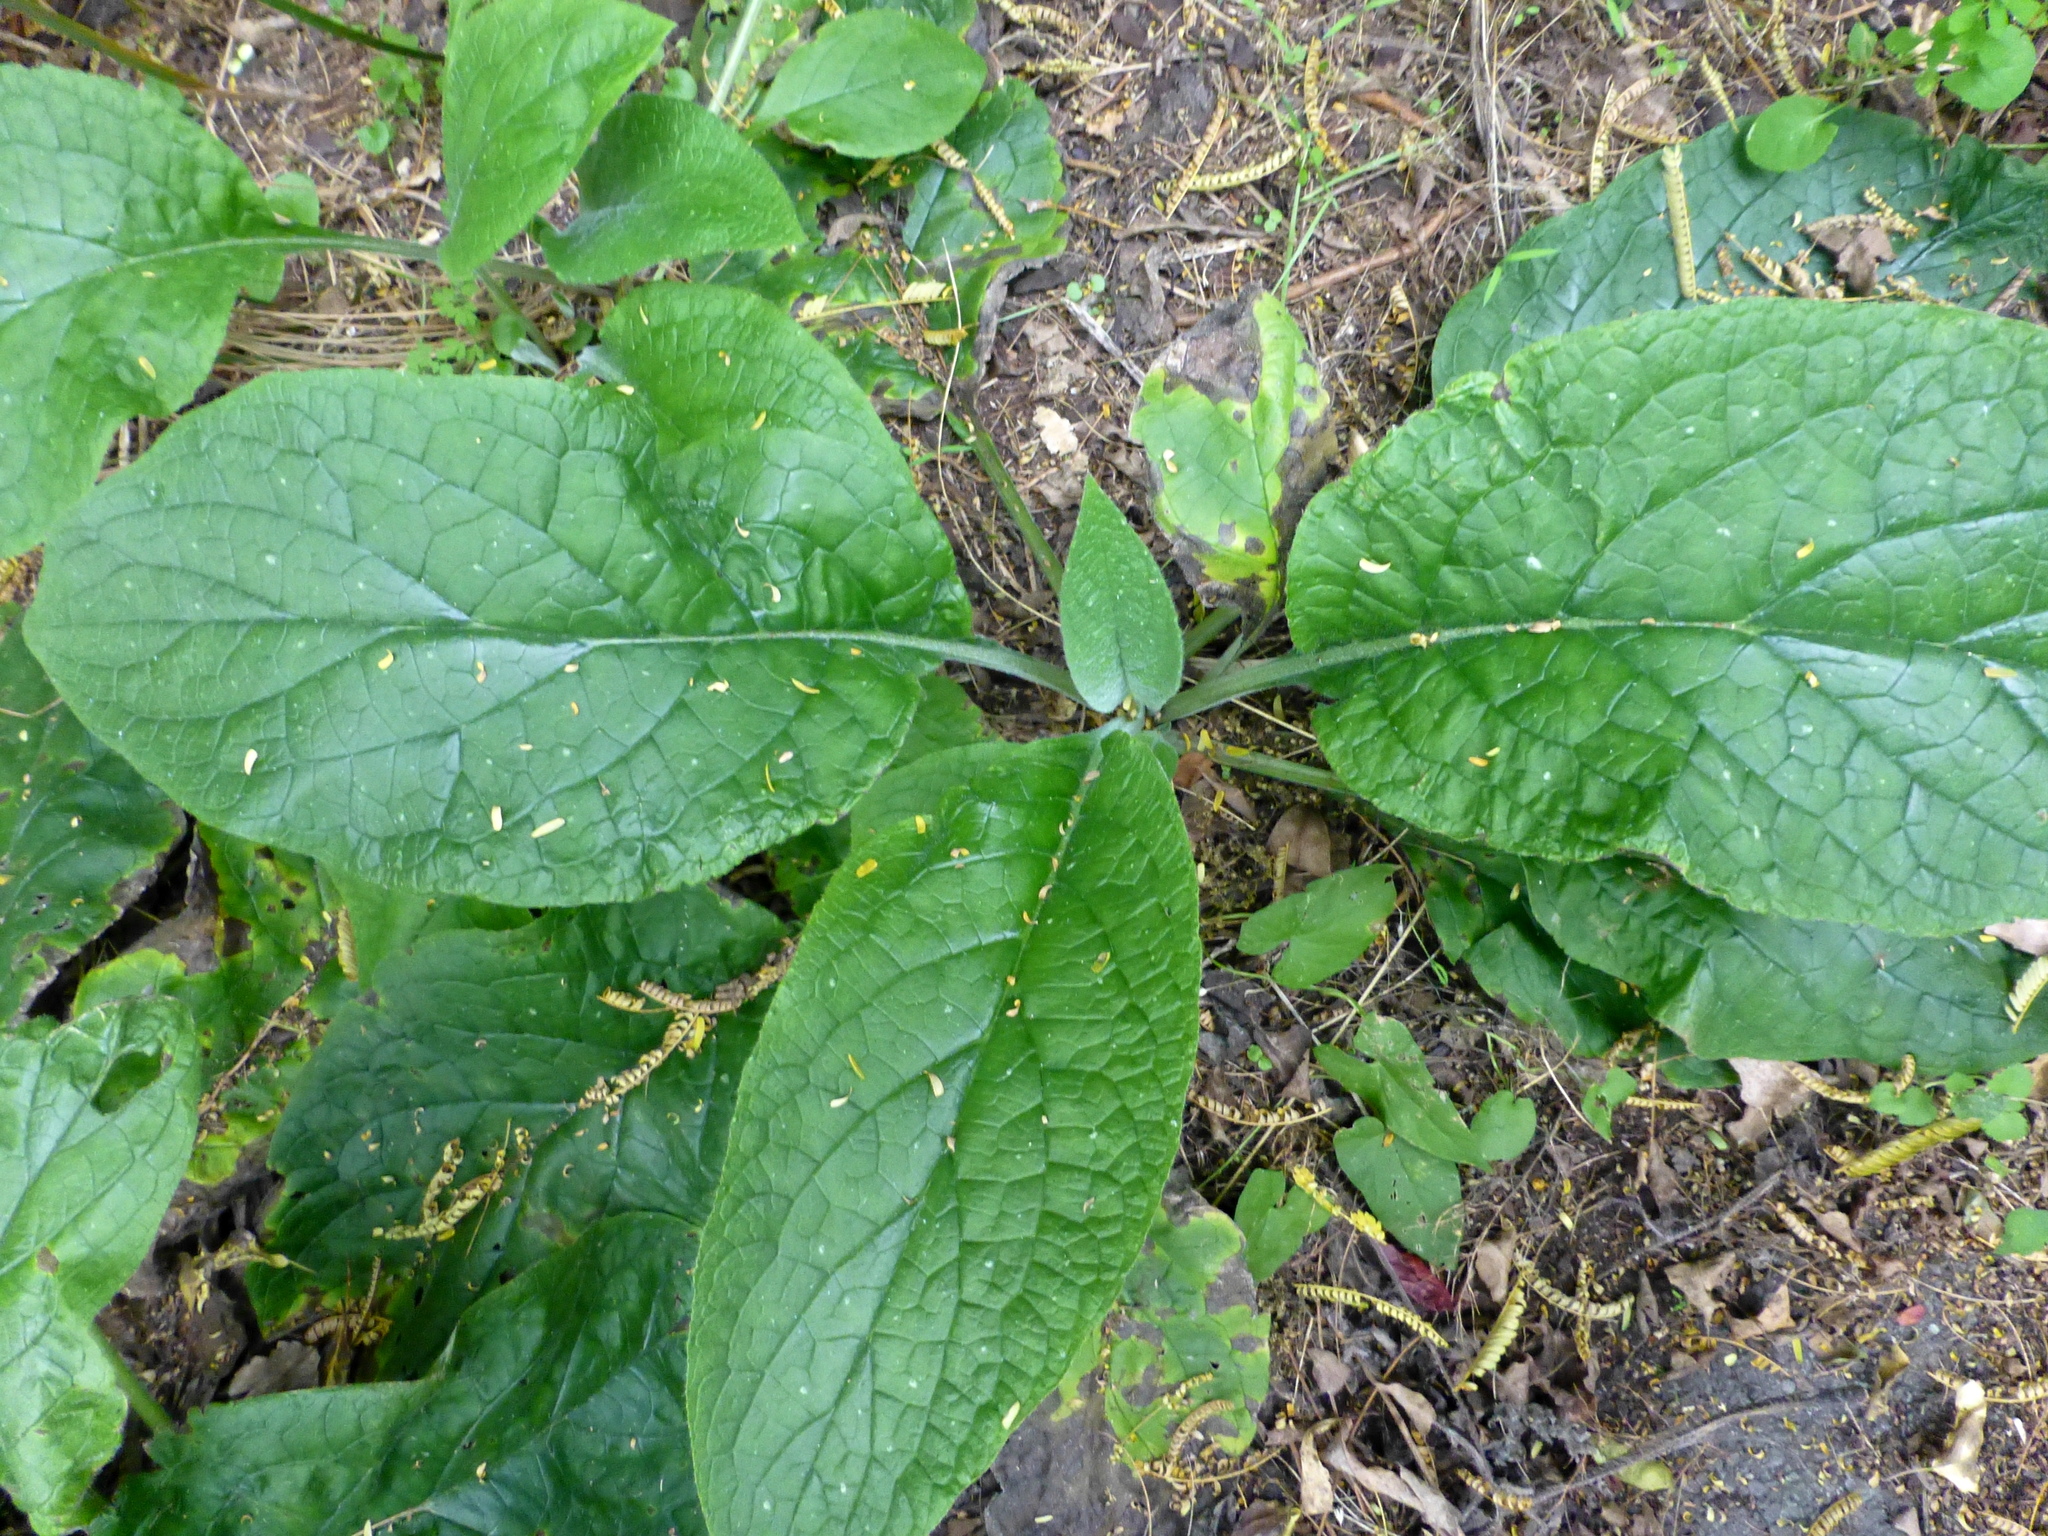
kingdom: Plantae
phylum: Tracheophyta
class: Magnoliopsida
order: Boraginales
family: Boraginaceae
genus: Symphytum
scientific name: Symphytum officinale
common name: Common comfrey
